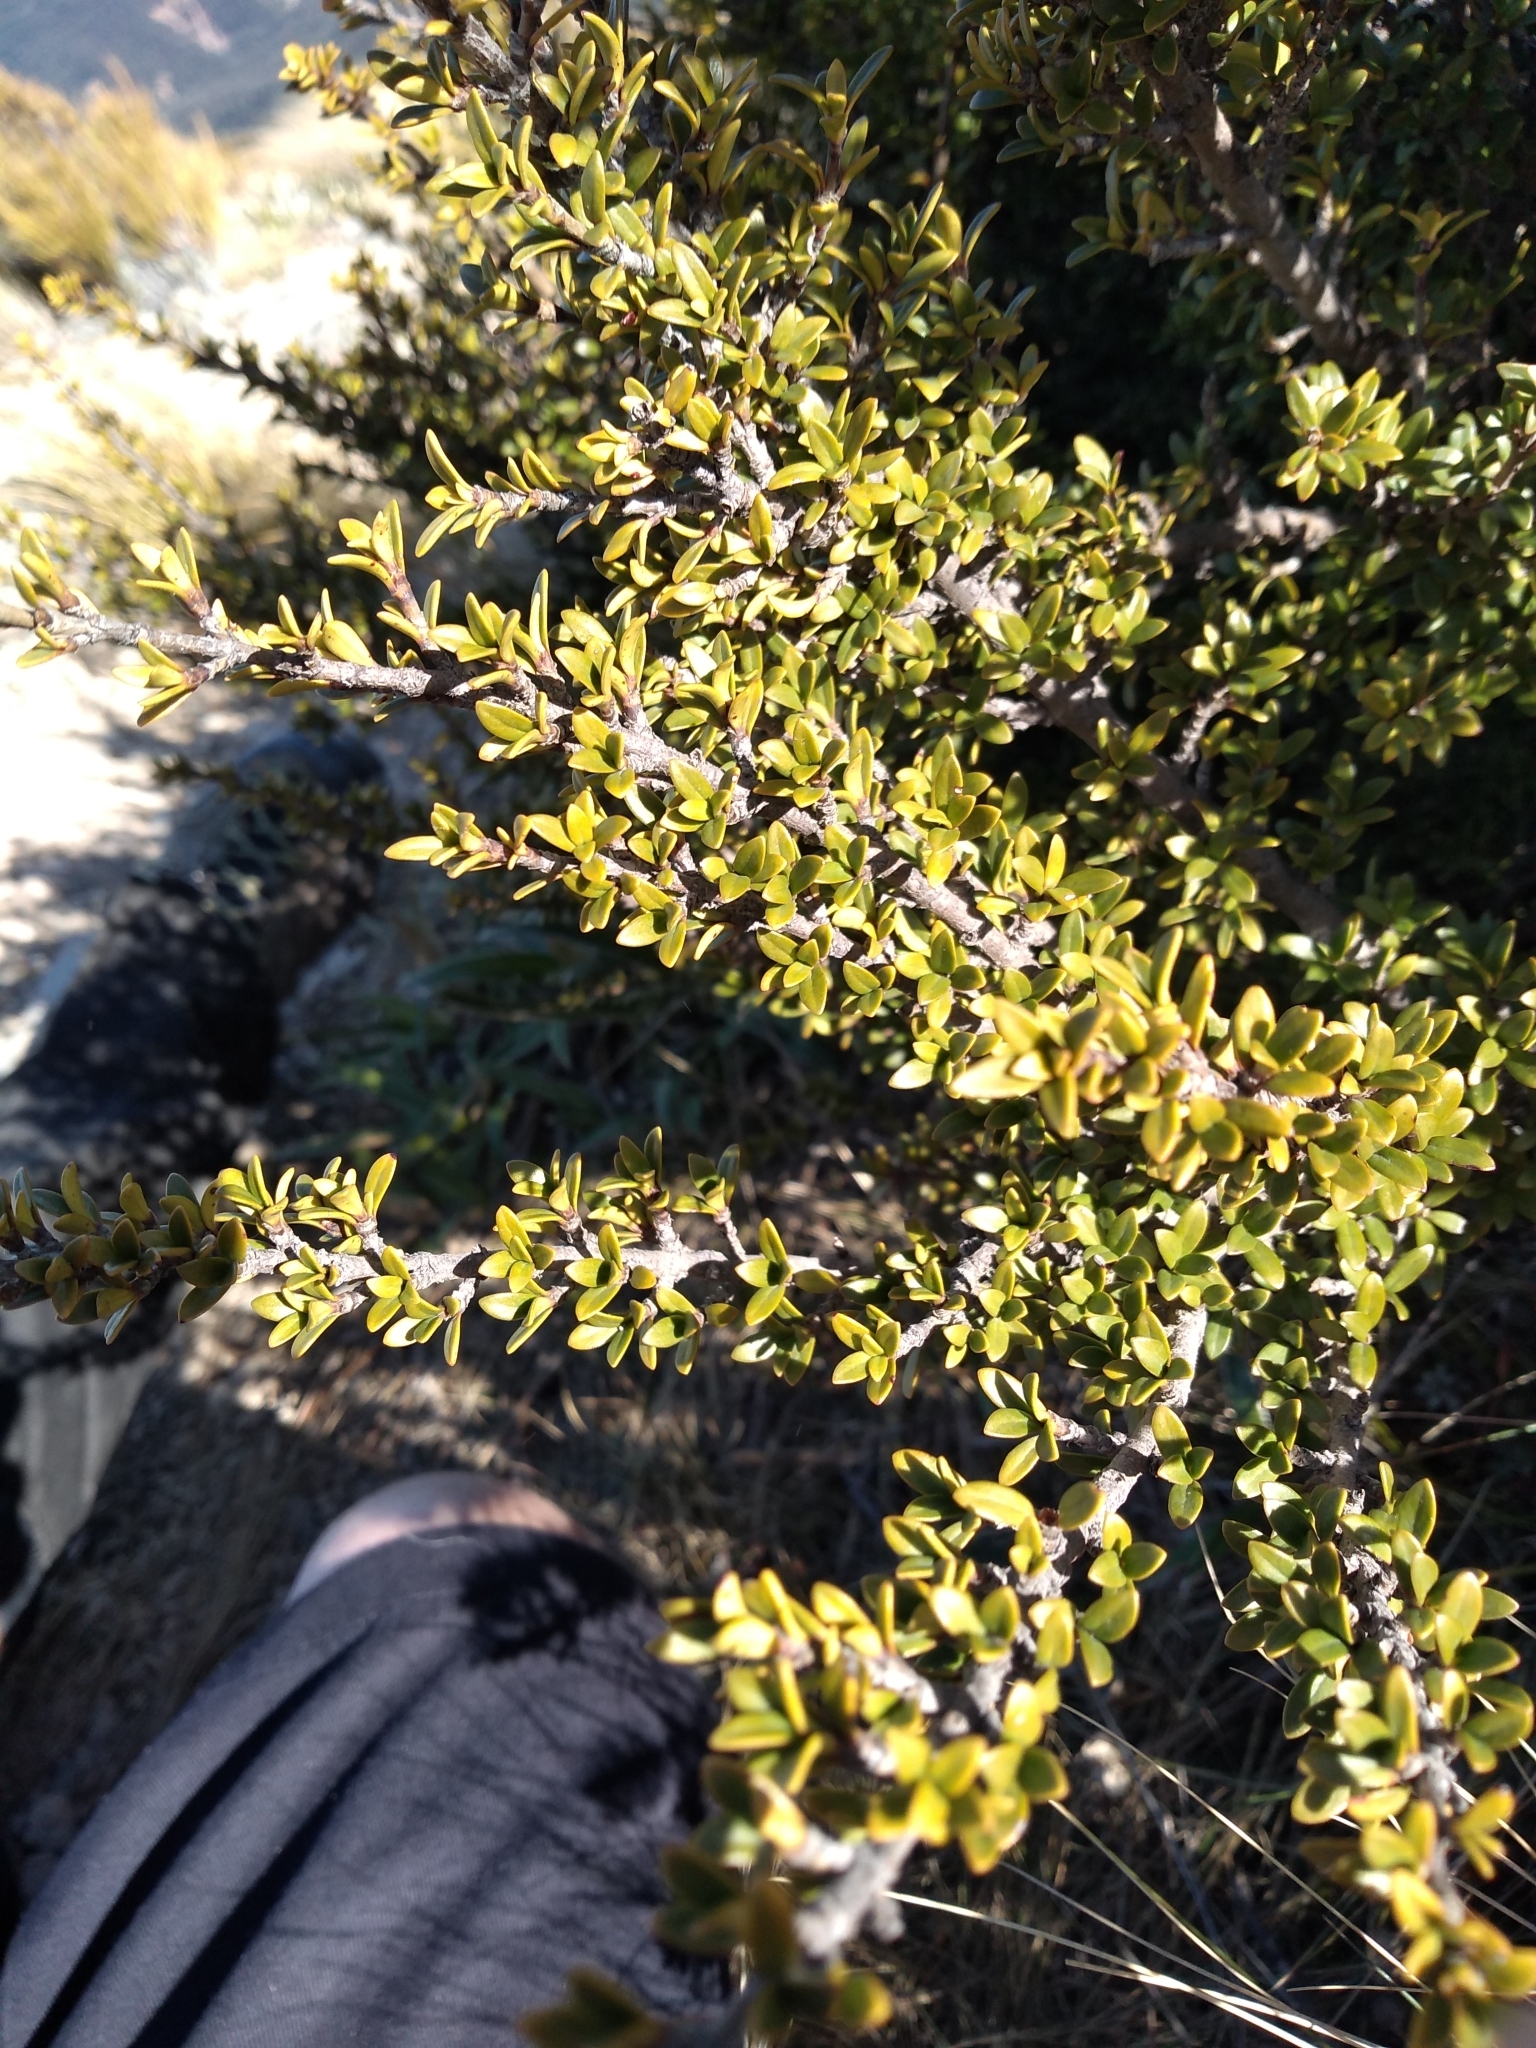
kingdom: Plantae
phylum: Tracheophyta
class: Magnoliopsida
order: Gentianales
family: Rubiaceae
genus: Coprosma
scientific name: Coprosma pseudocuneata
